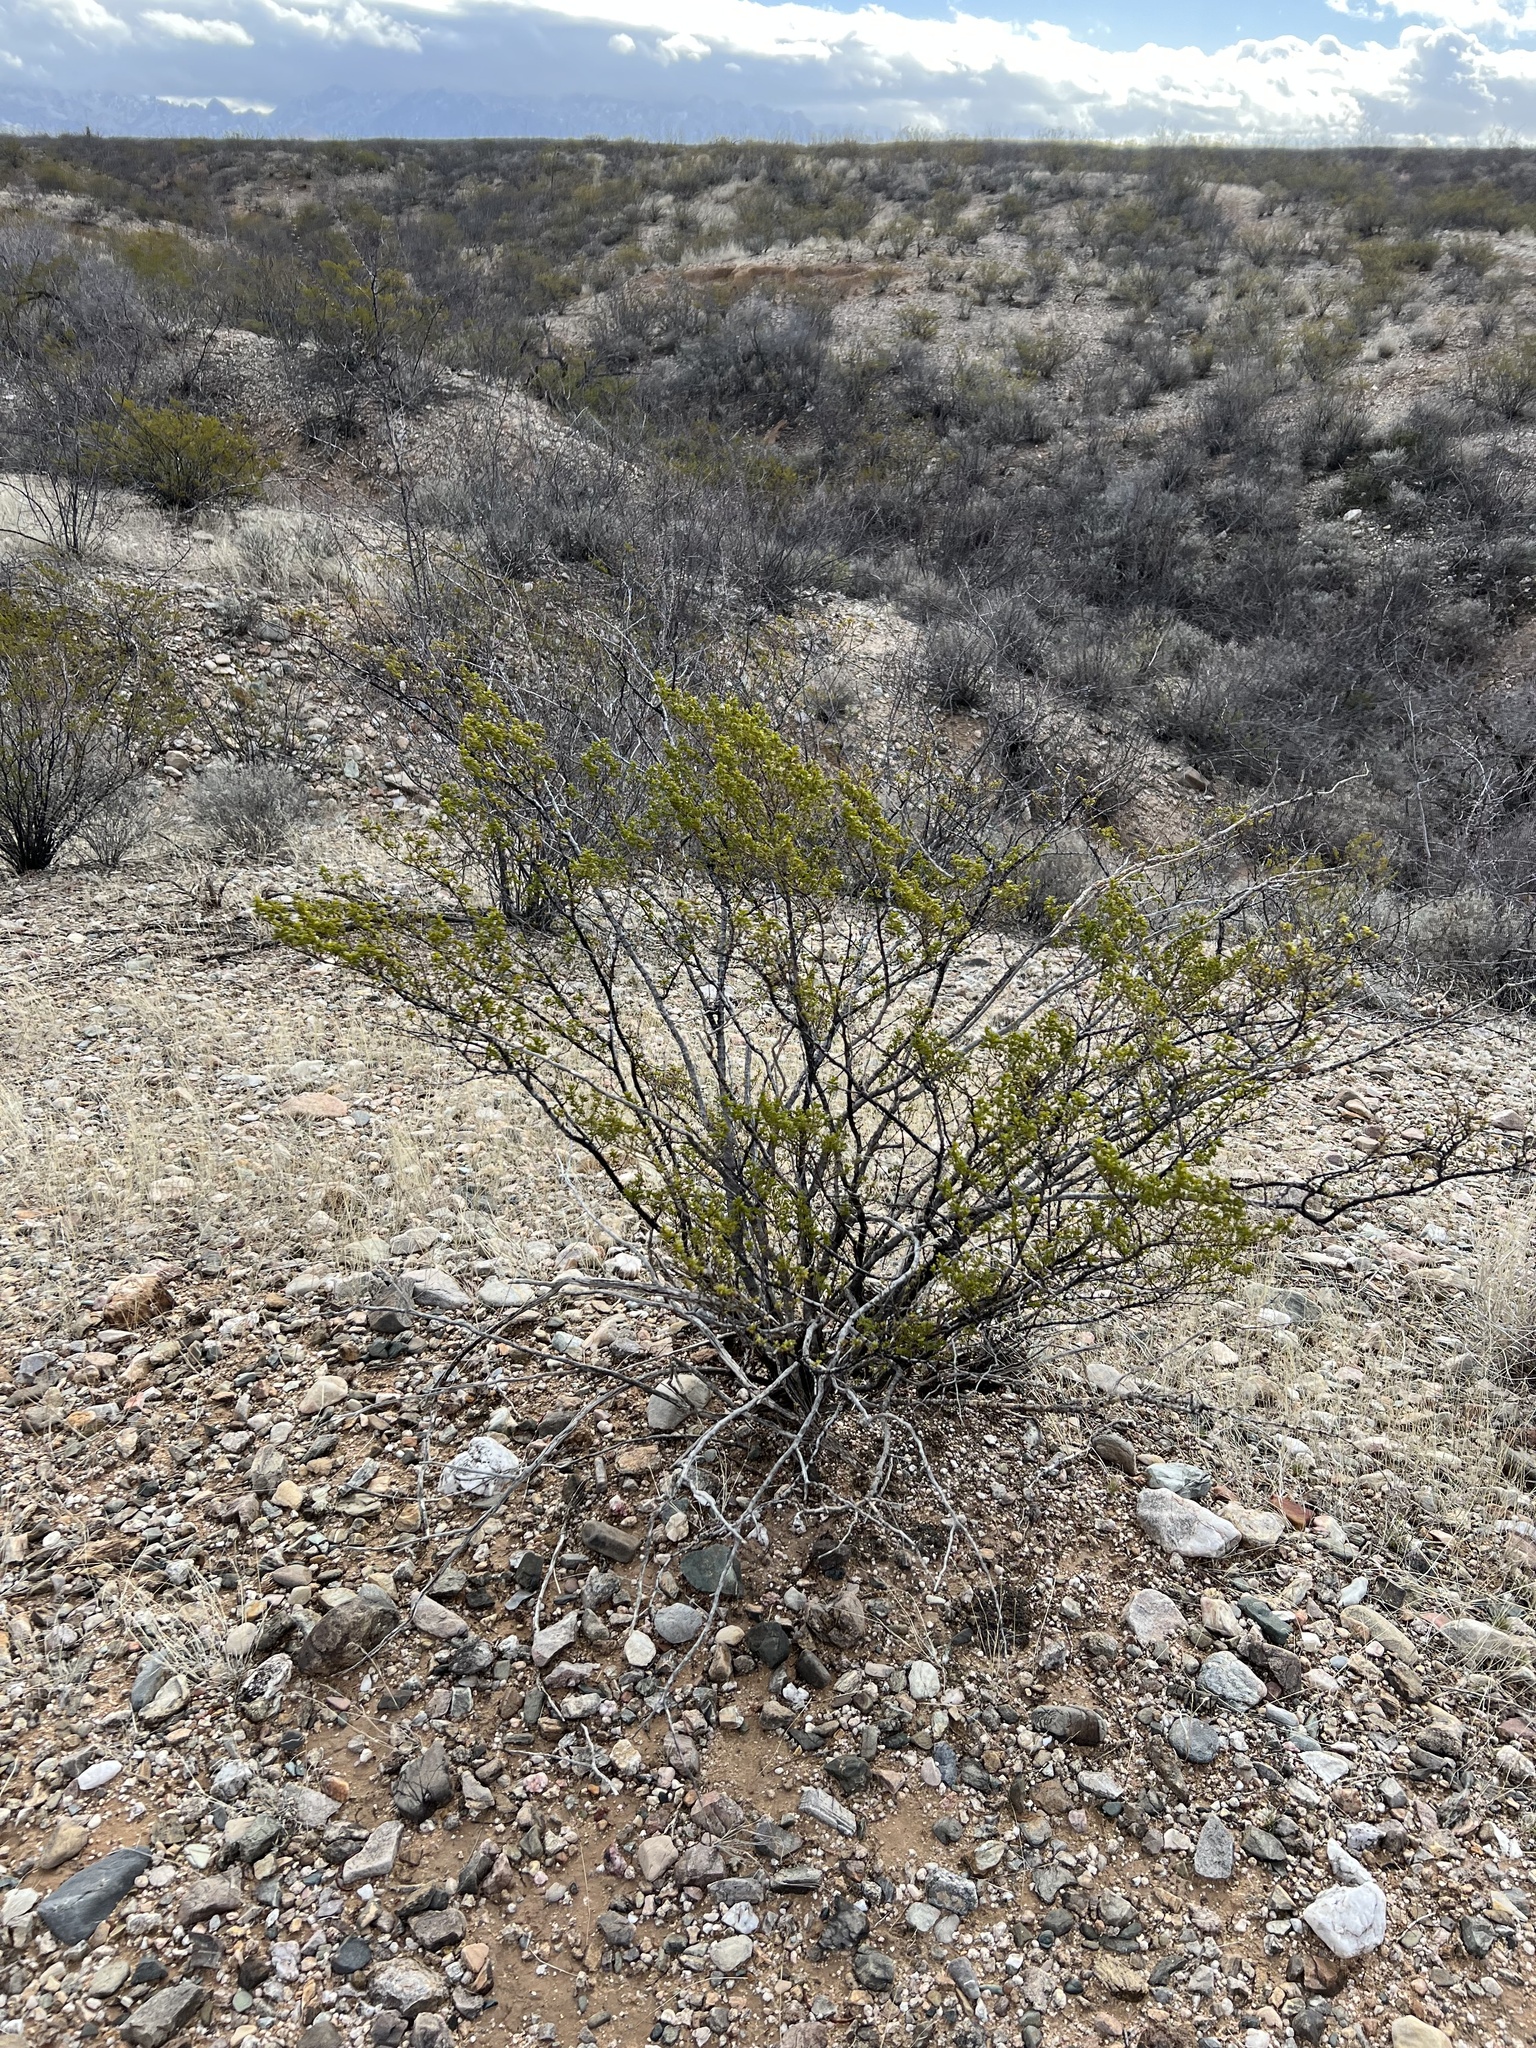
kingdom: Plantae
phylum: Tracheophyta
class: Magnoliopsida
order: Zygophyllales
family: Zygophyllaceae
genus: Larrea
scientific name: Larrea tridentata
